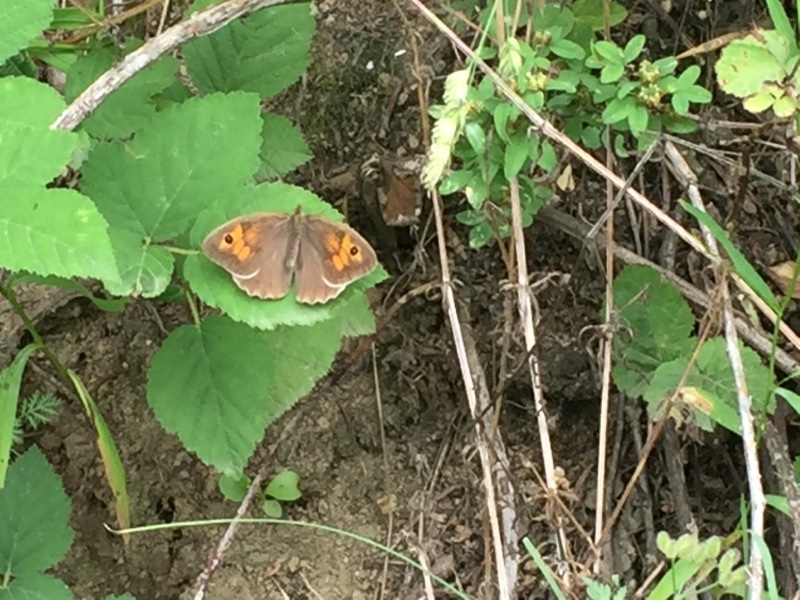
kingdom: Animalia
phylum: Arthropoda
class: Insecta
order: Lepidoptera
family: Nymphalidae
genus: Maniola
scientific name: Maniola jurtina
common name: Meadow brown
